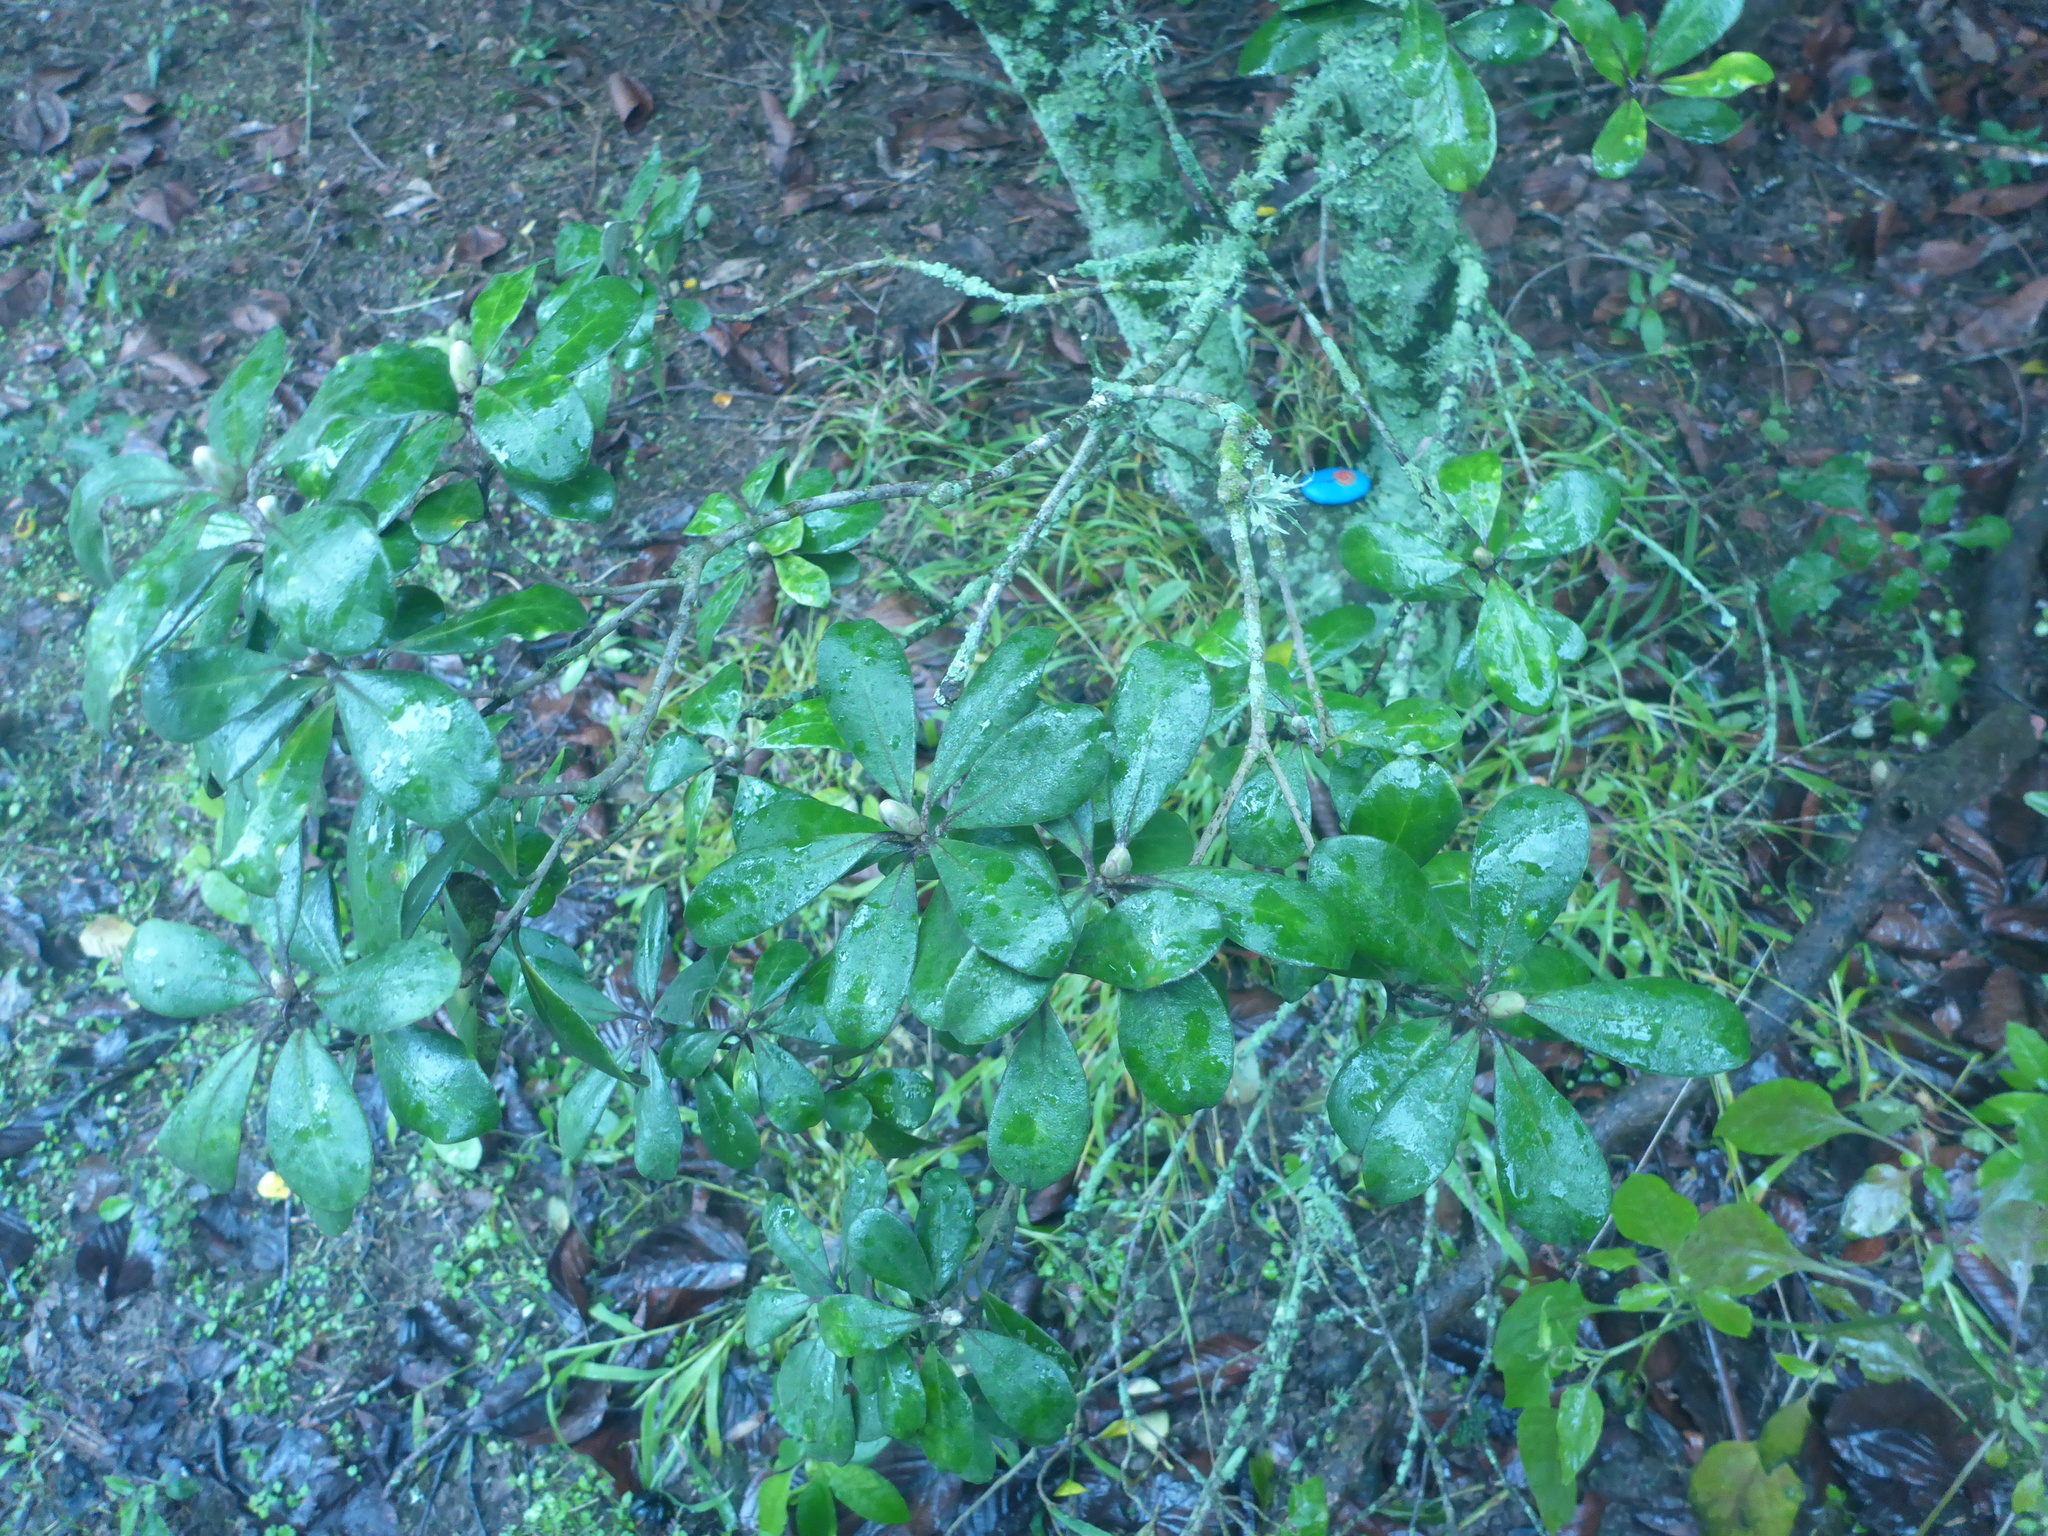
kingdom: Plantae
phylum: Tracheophyta
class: Magnoliopsida
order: Apiales
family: Pittosporaceae
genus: Pittosporum
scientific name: Pittosporum crassifolium
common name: Karo
